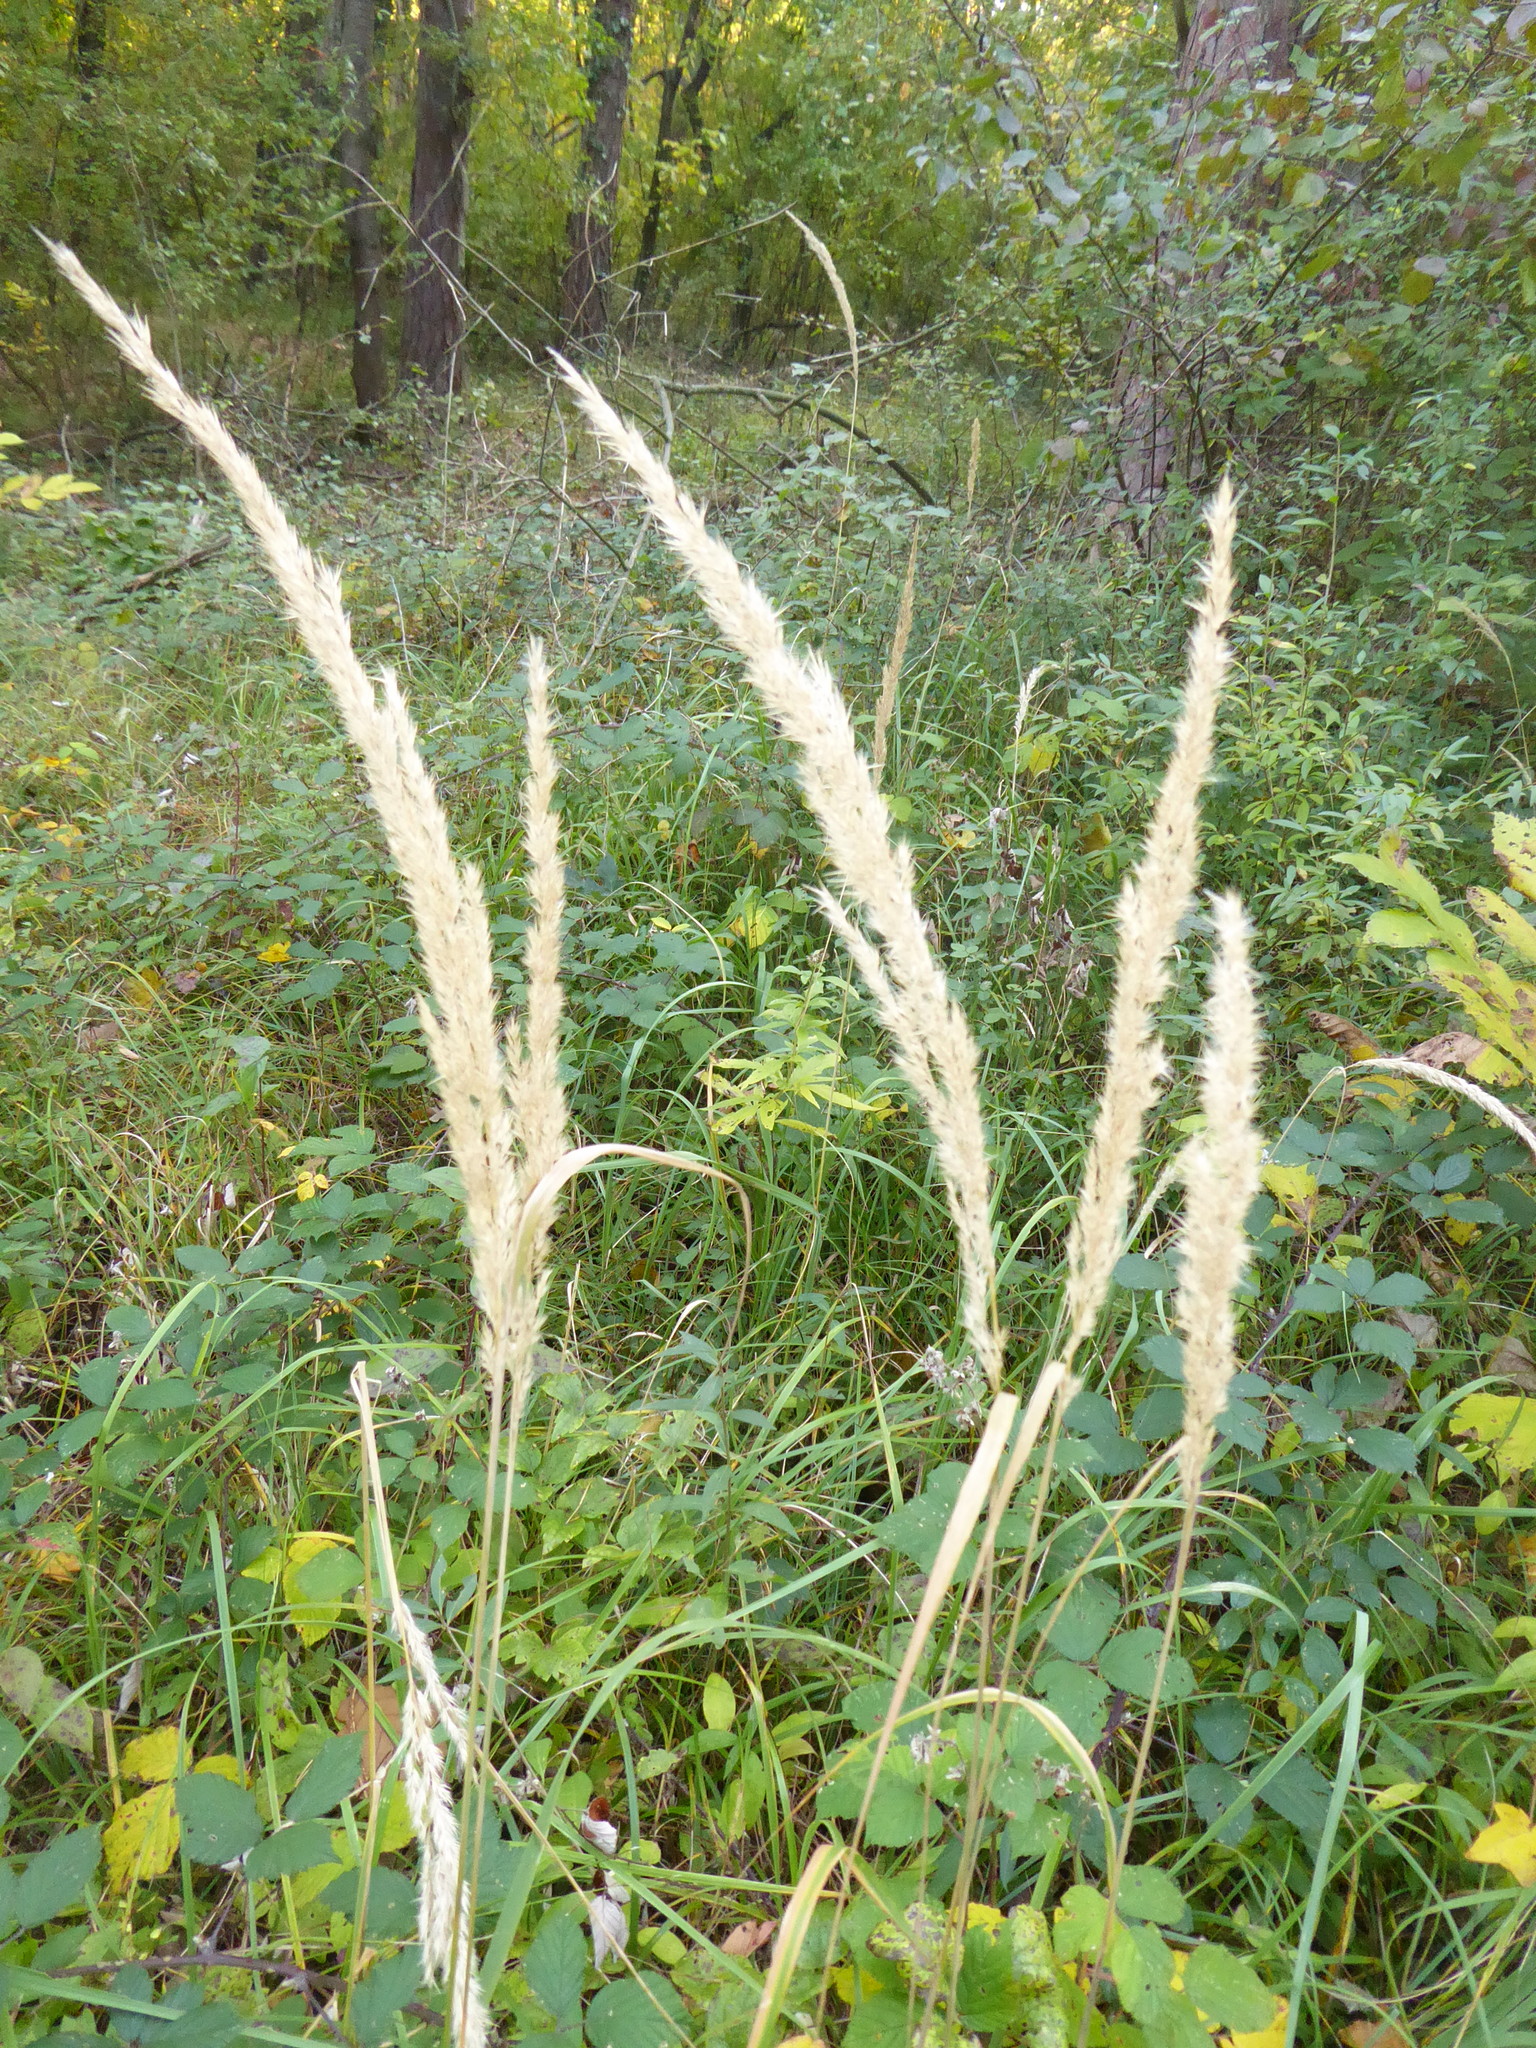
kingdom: Plantae
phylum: Tracheophyta
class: Liliopsida
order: Poales
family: Poaceae
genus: Calamagrostis
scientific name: Calamagrostis epigejos
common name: Wood small-reed
